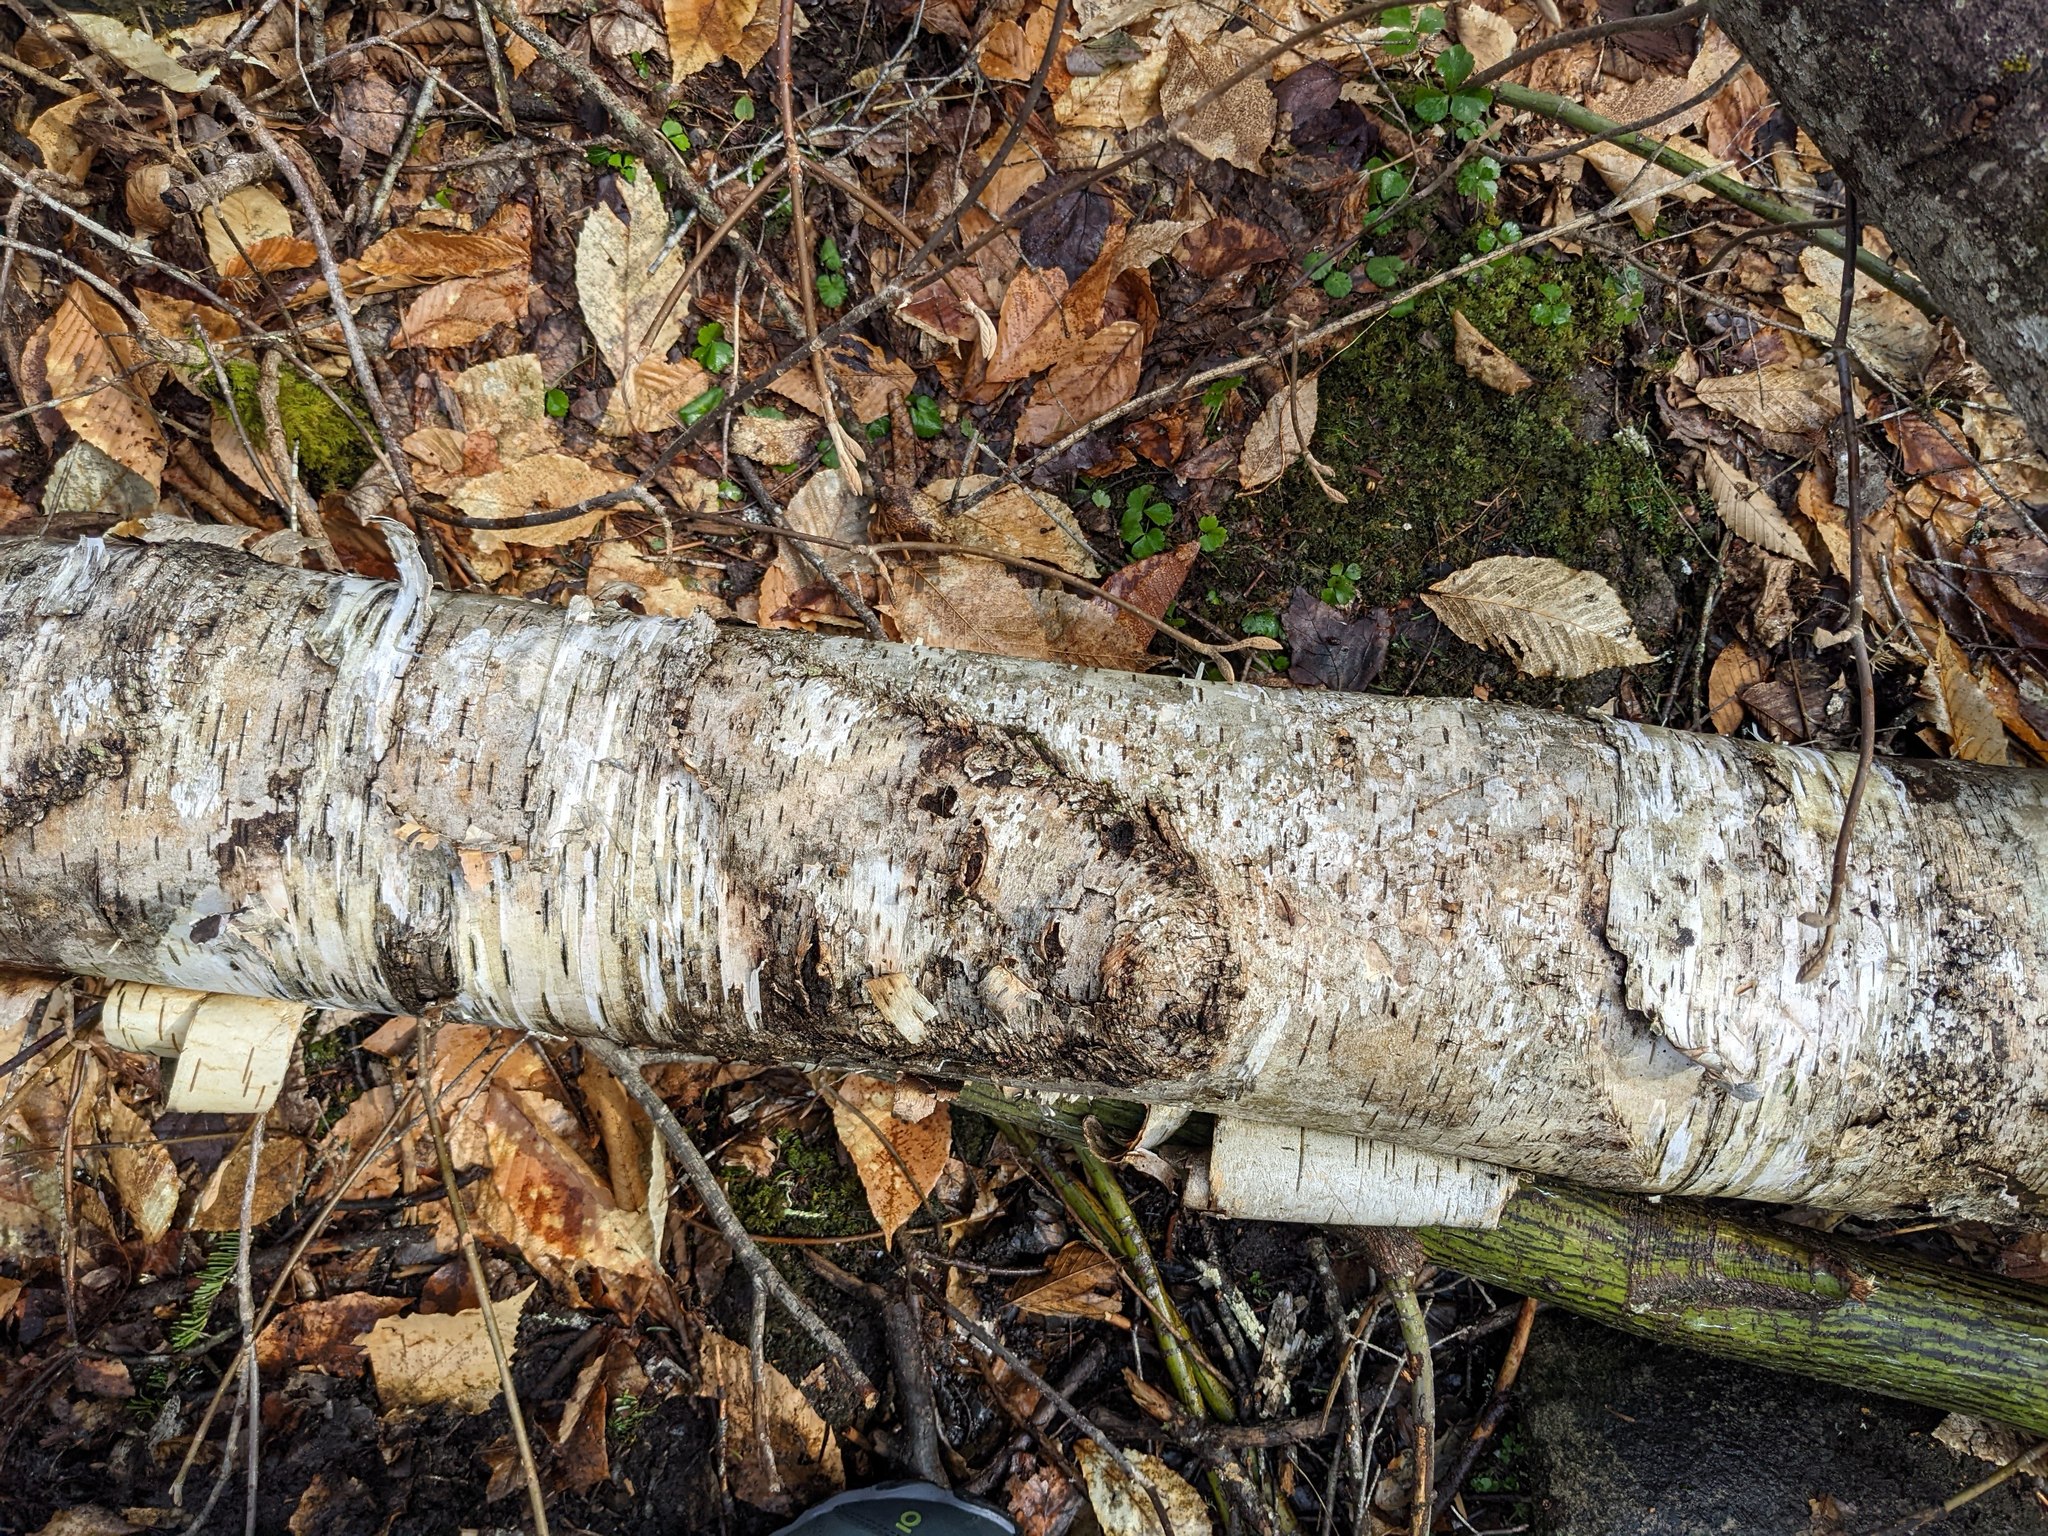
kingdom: Plantae
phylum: Tracheophyta
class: Magnoliopsida
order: Ranunculales
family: Ranunculaceae
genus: Coptis
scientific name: Coptis trifolia
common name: Canker-root
